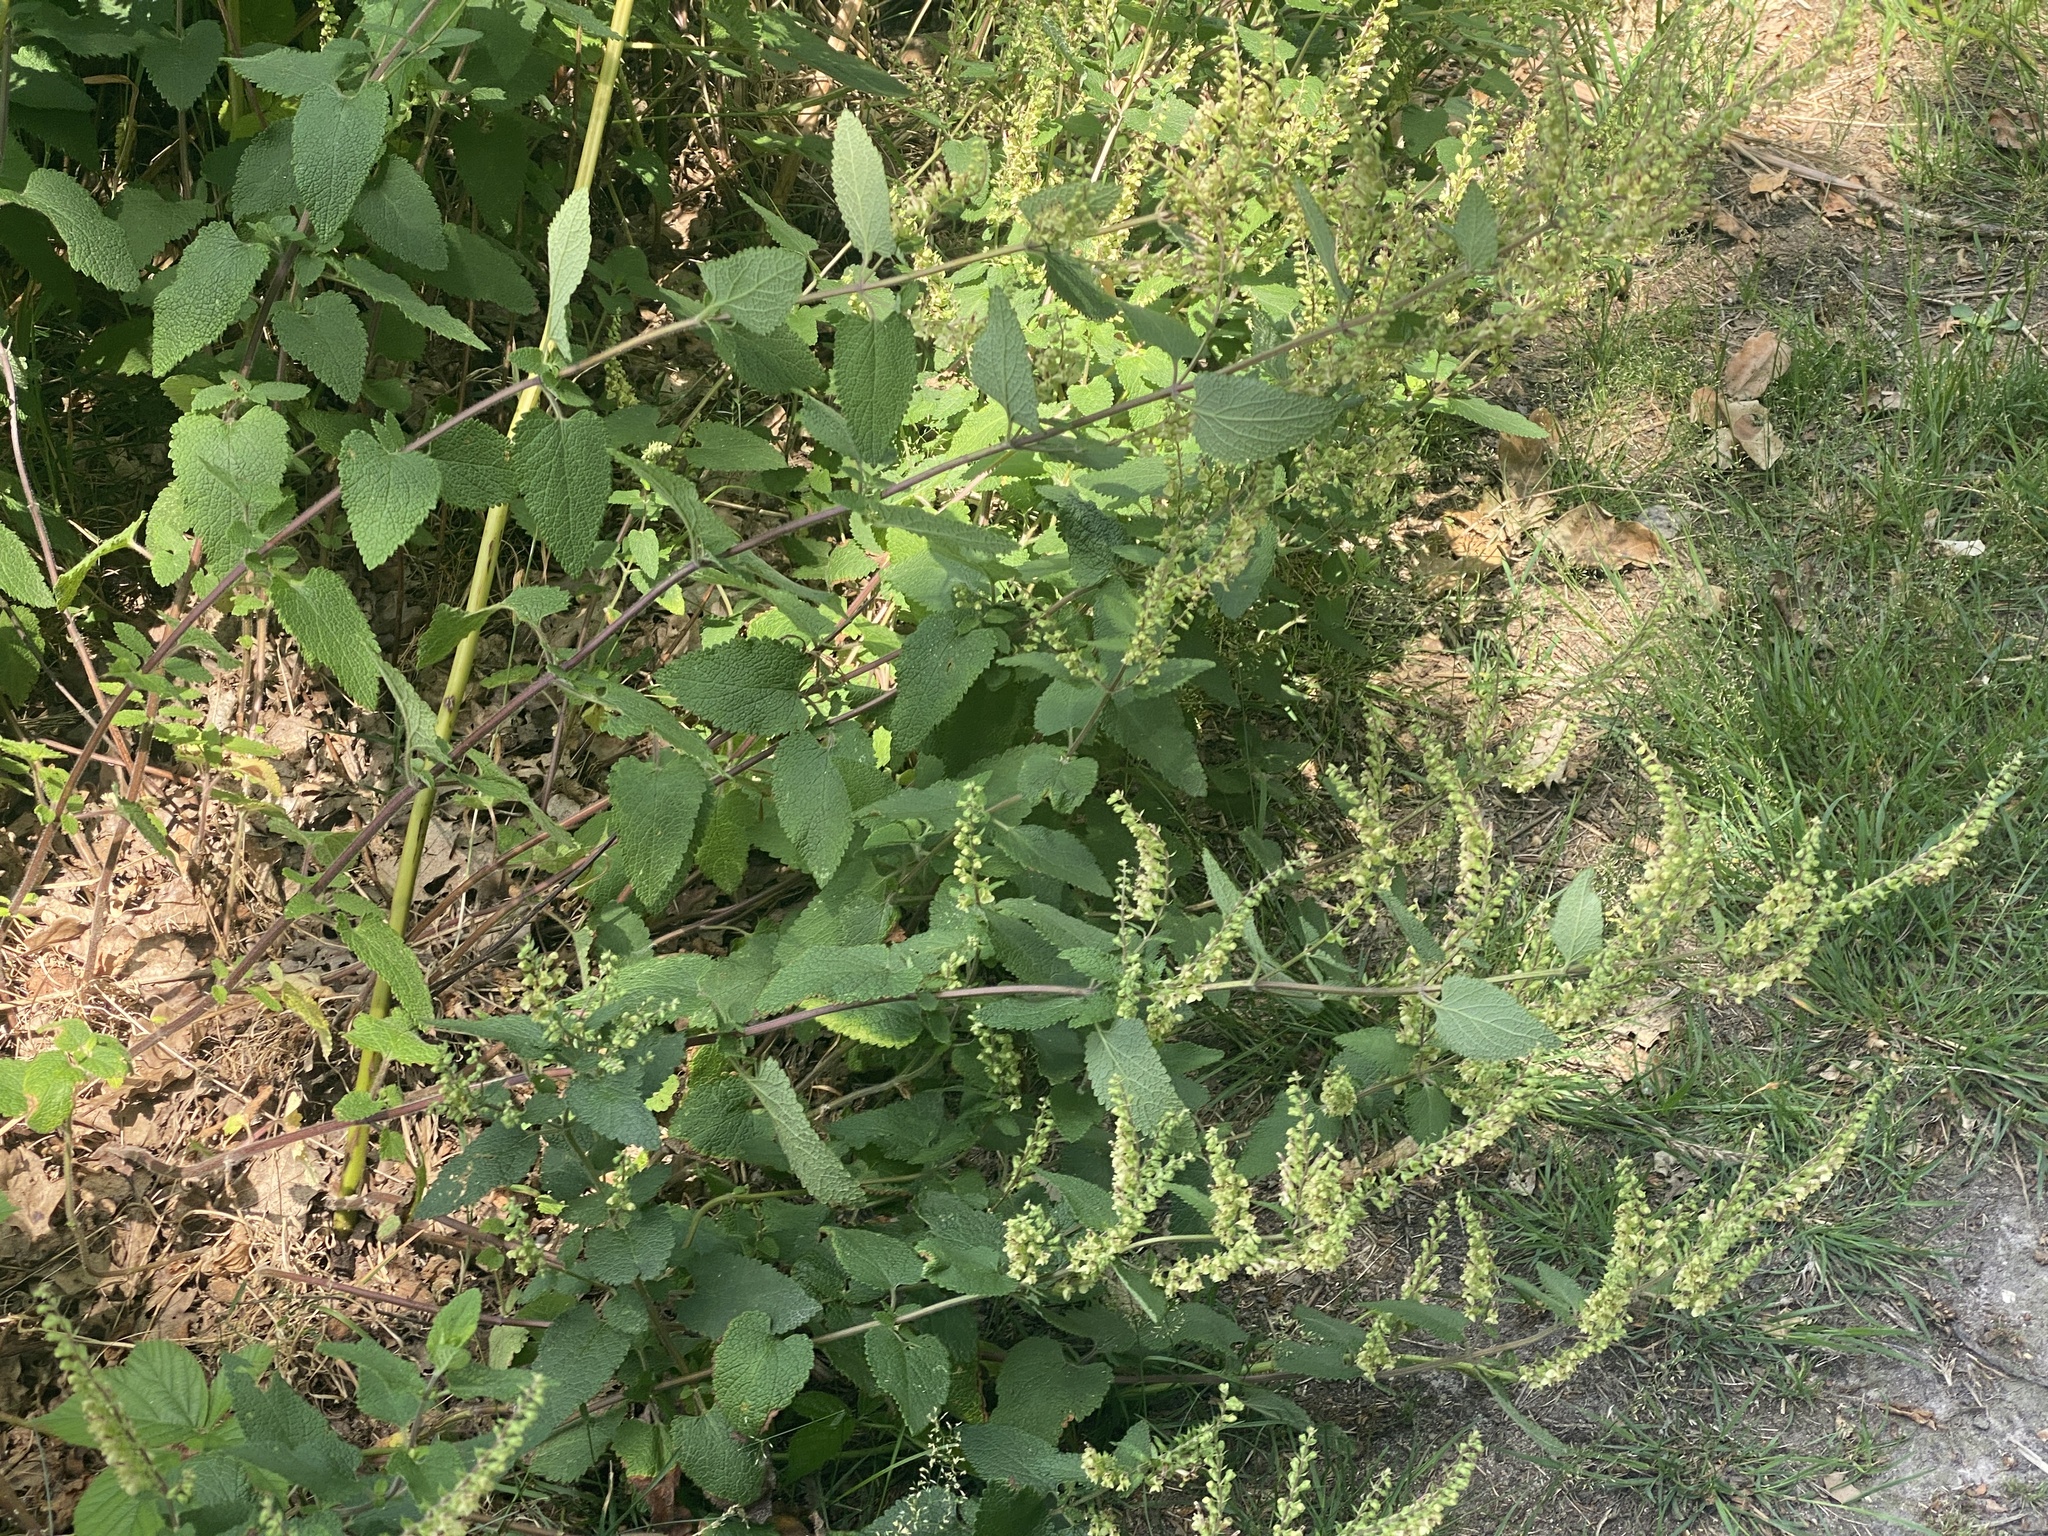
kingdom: Plantae
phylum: Tracheophyta
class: Magnoliopsida
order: Lamiales
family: Lamiaceae
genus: Teucrium
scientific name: Teucrium scorodonia
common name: Woodland germander
